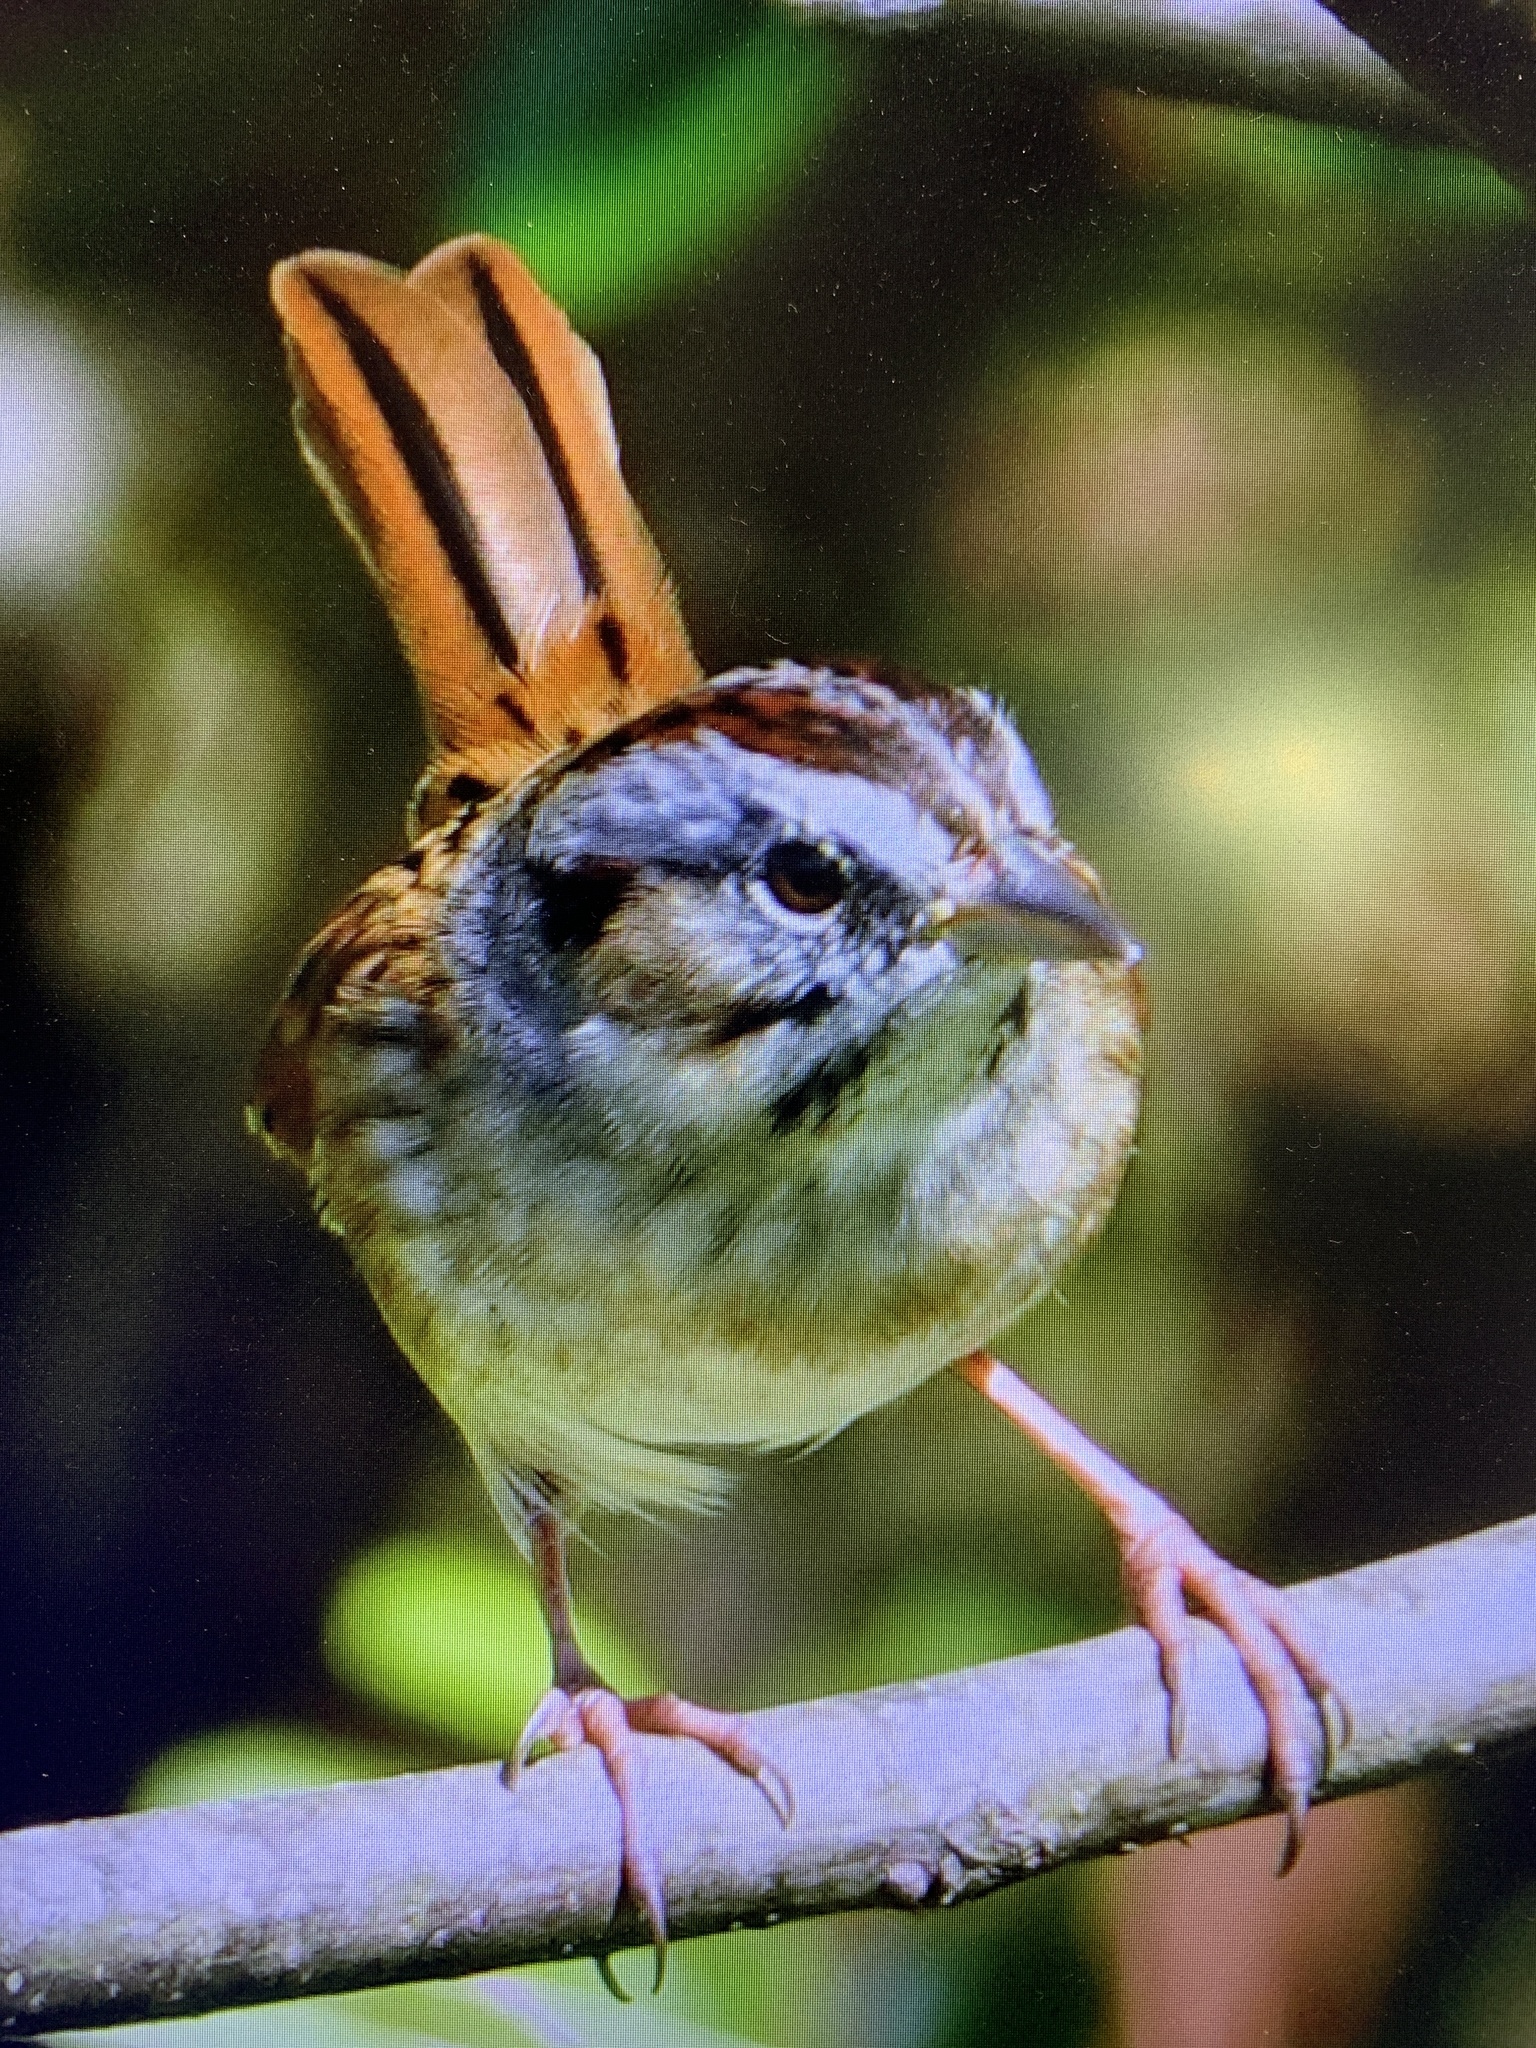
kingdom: Animalia
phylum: Chordata
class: Aves
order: Passeriformes
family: Passerellidae
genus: Melospiza
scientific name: Melospiza georgiana
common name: Swamp sparrow
